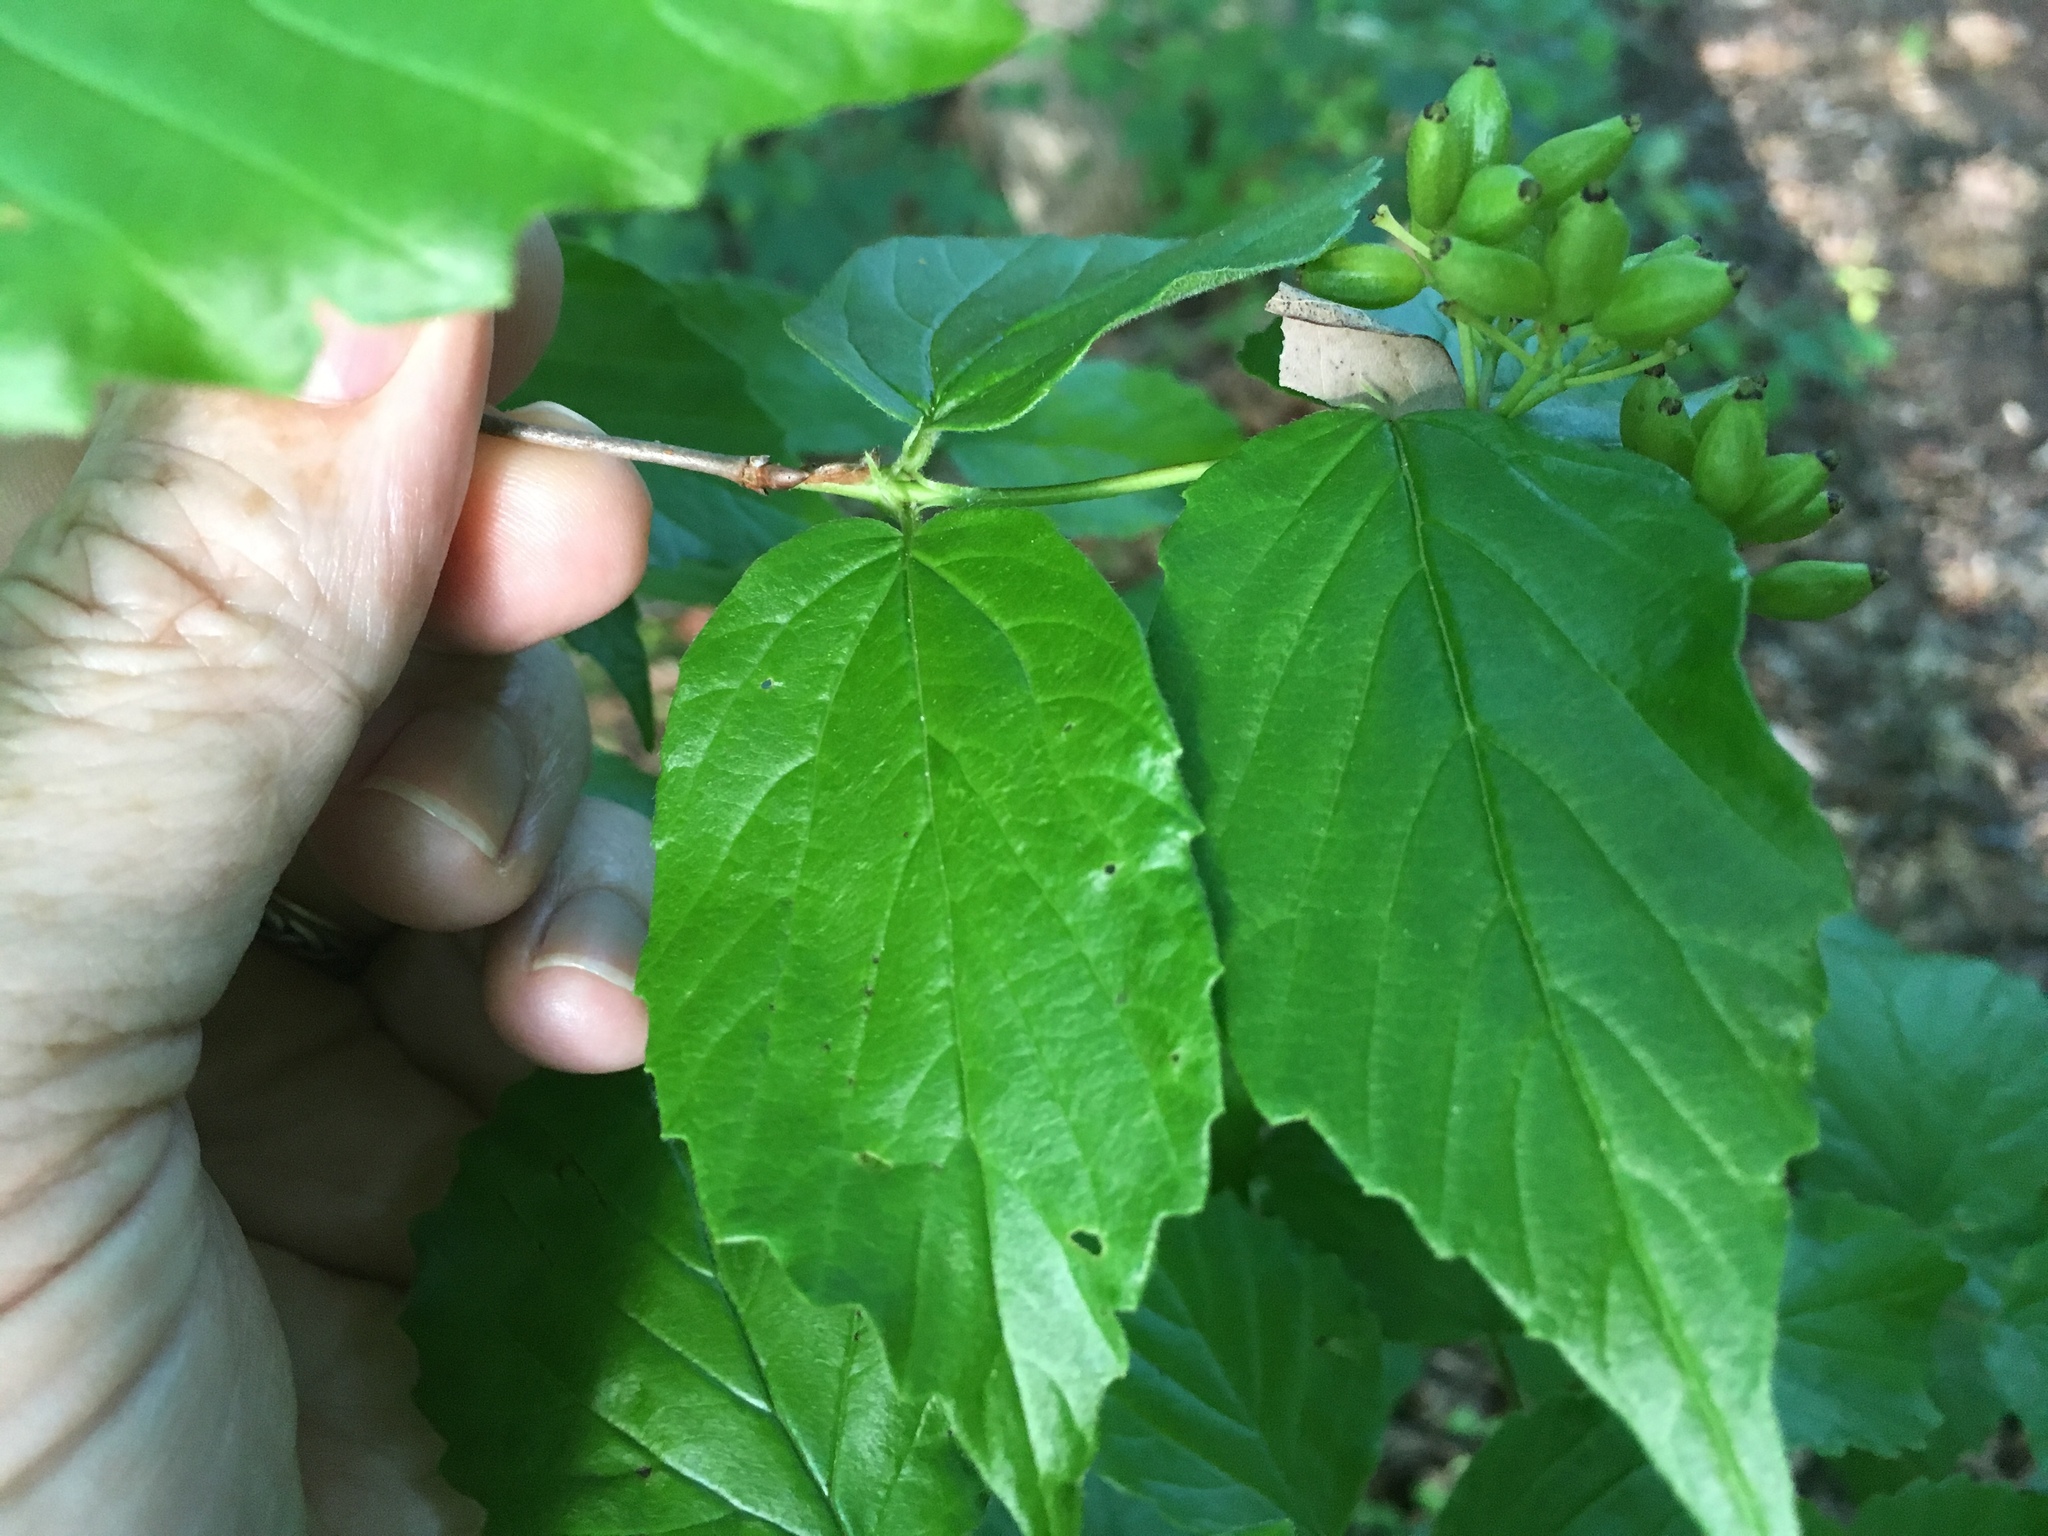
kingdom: Plantae
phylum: Tracheophyta
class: Magnoliopsida
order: Dipsacales
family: Viburnaceae
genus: Viburnum
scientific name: Viburnum rafinesqueanum
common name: Downy arrow-wood
